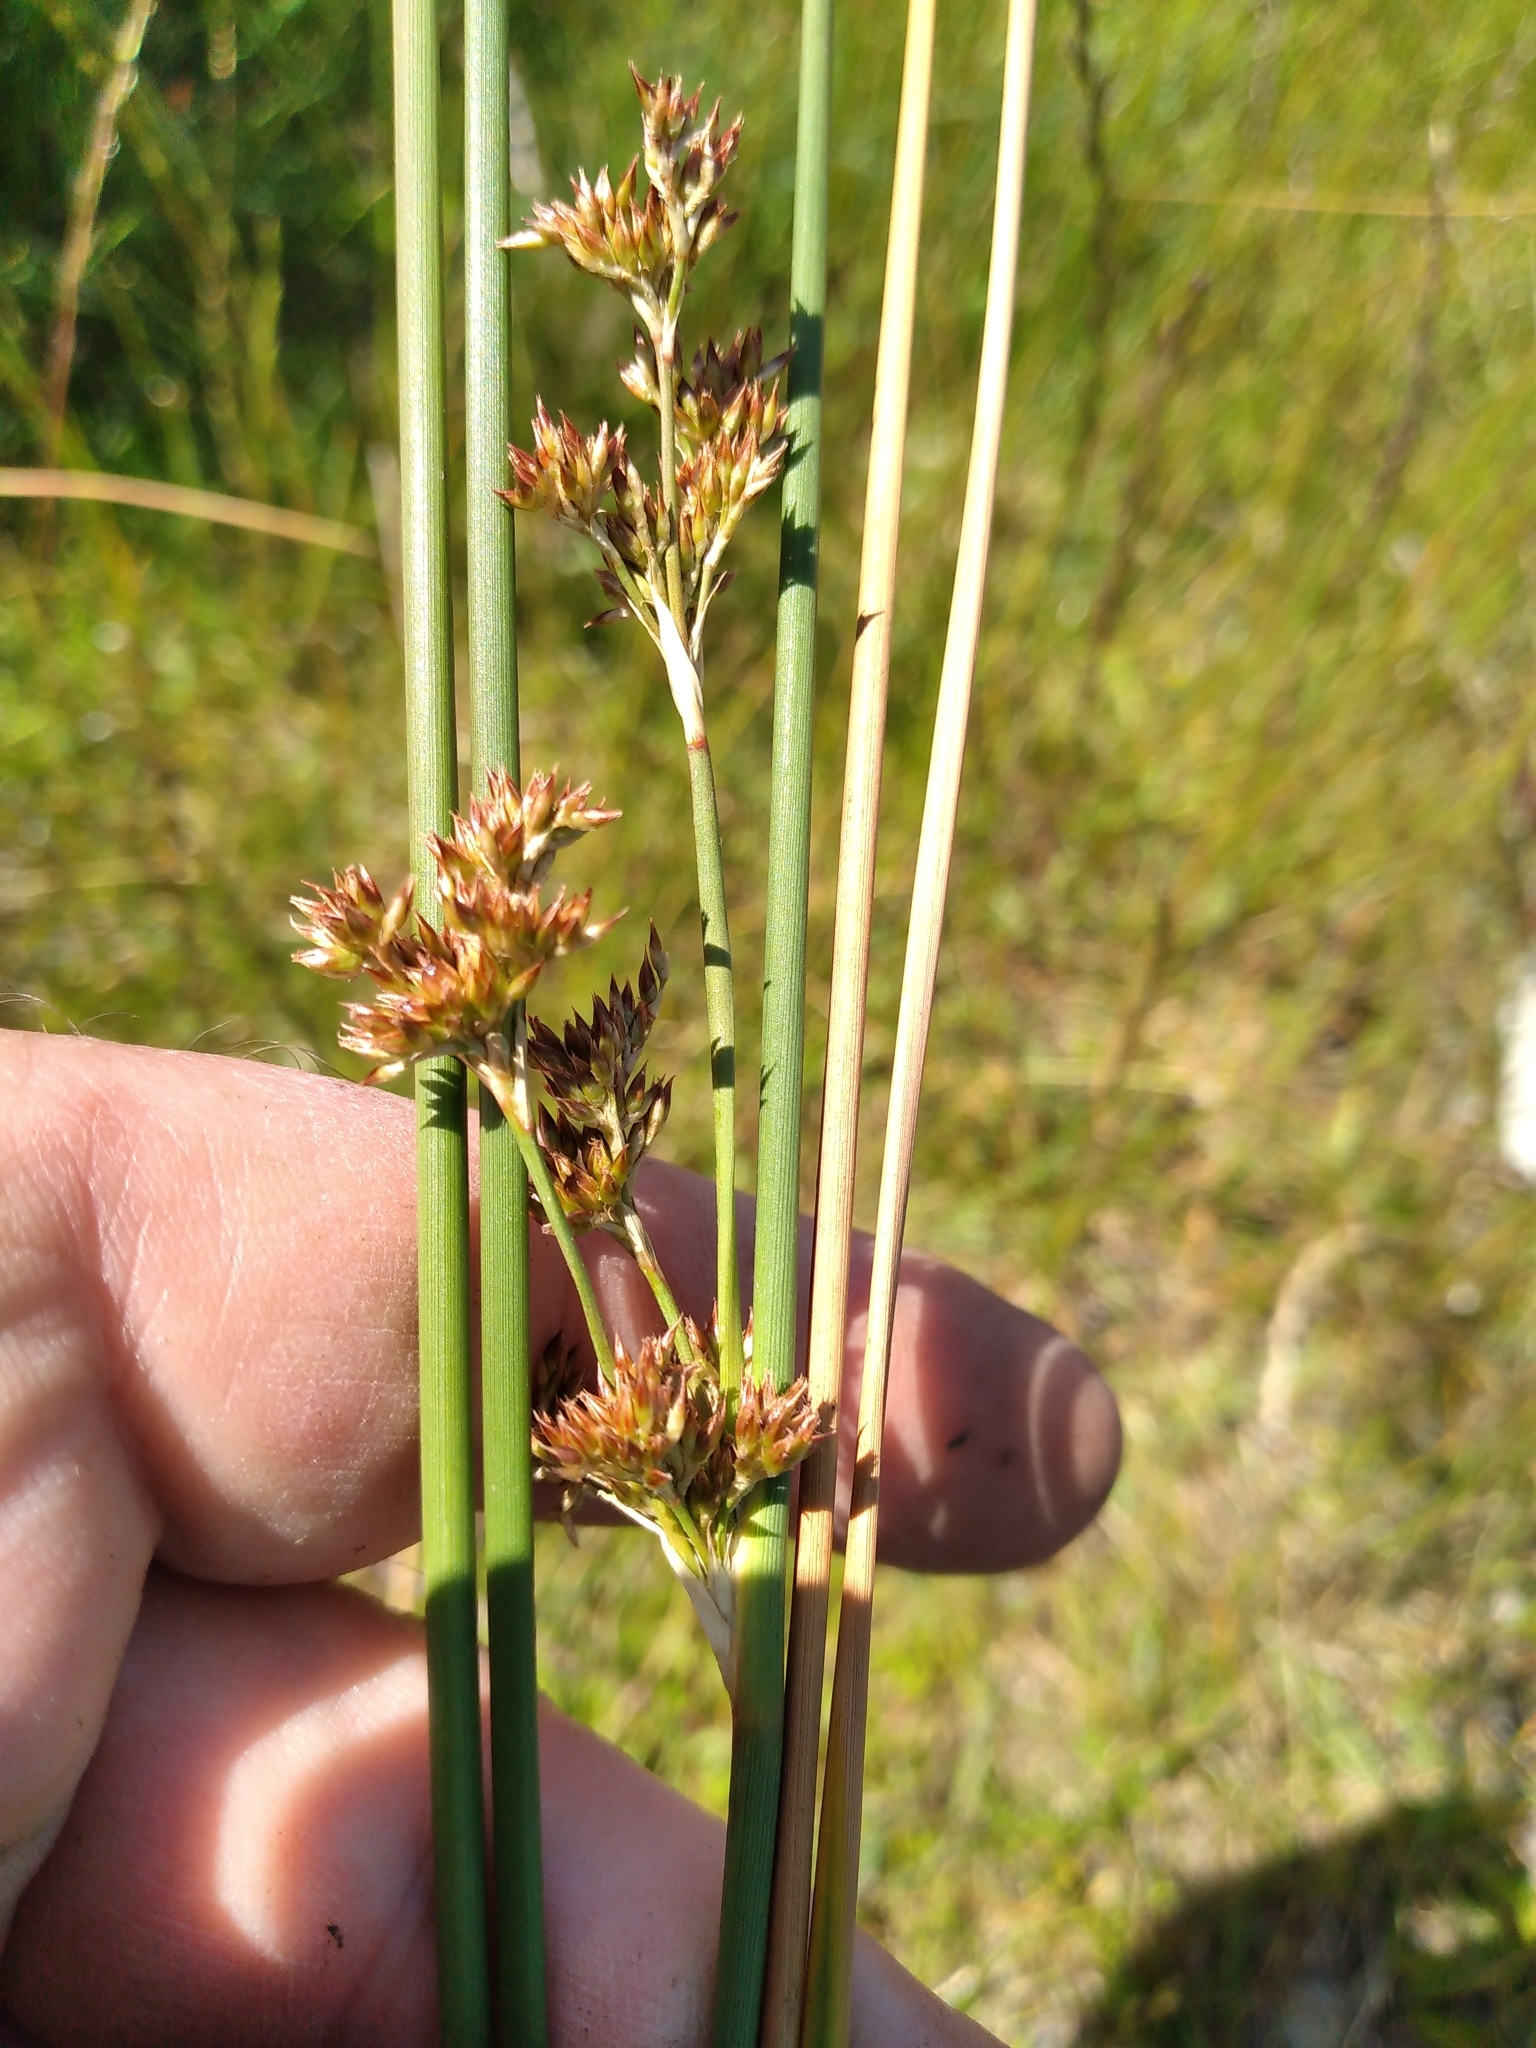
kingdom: Plantae
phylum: Tracheophyta
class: Liliopsida
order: Poales
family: Juncaceae
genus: Juncus
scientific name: Juncus amabilis
